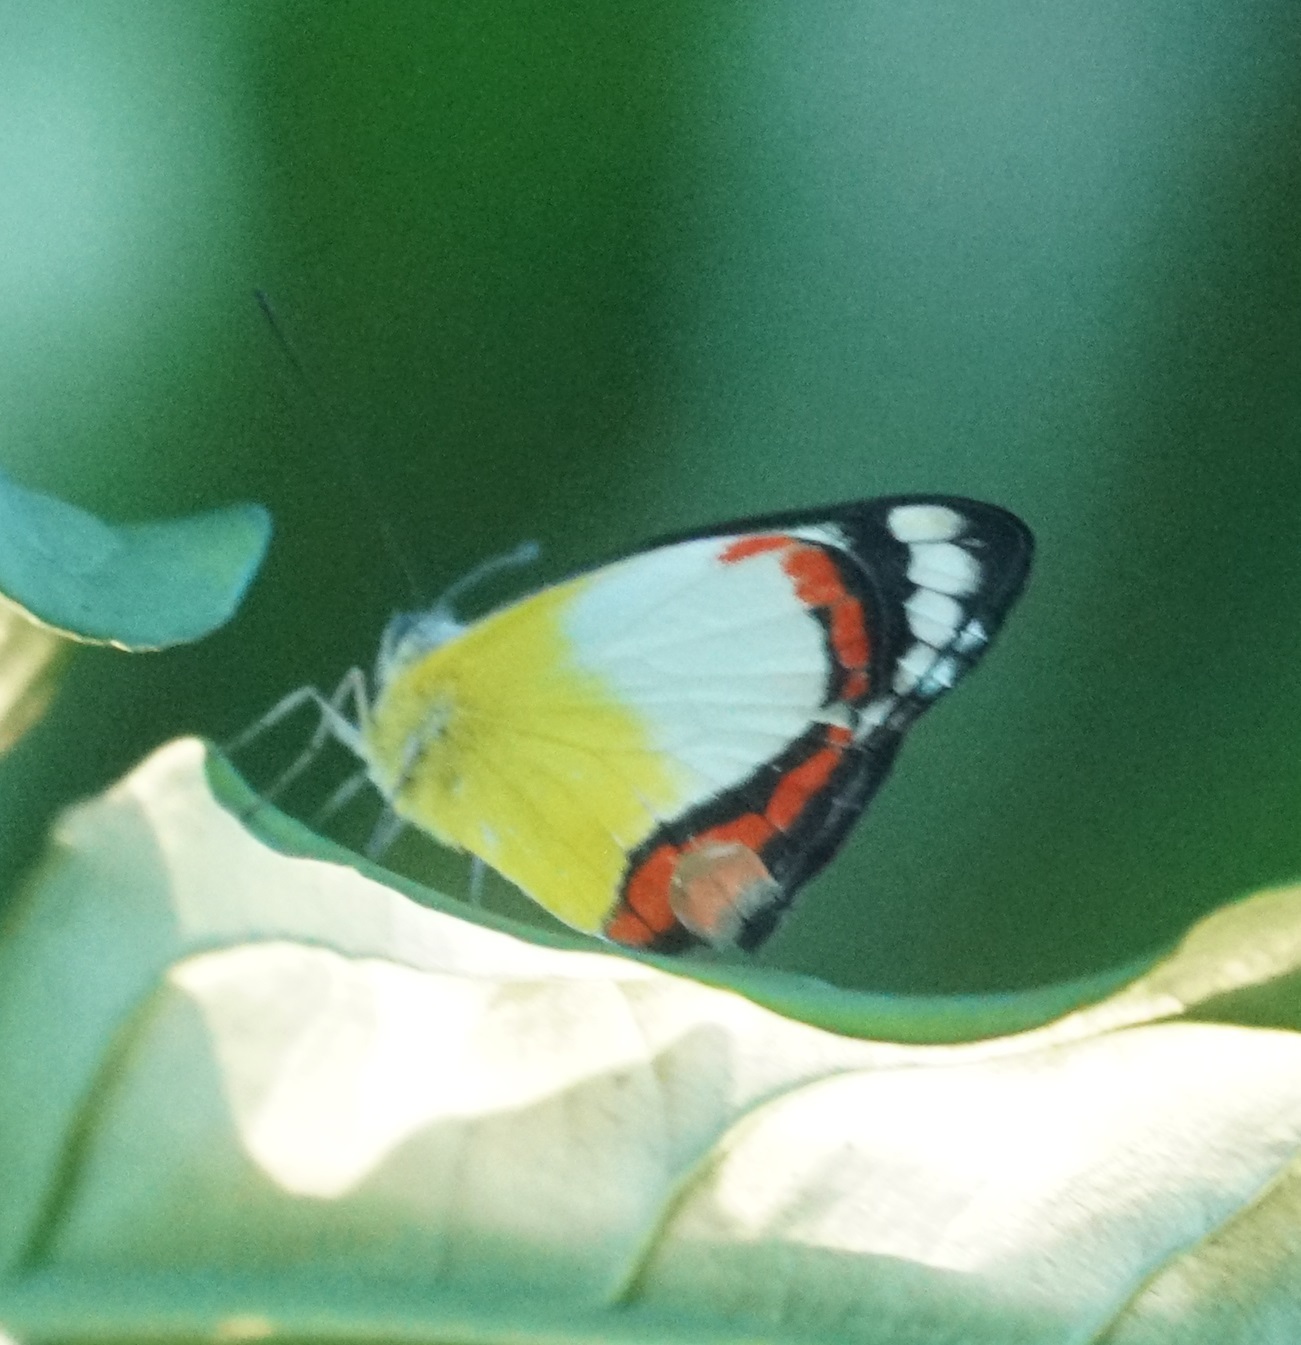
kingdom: Animalia
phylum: Arthropoda
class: Insecta
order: Lepidoptera
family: Pieridae
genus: Delias
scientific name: Delias mysis
